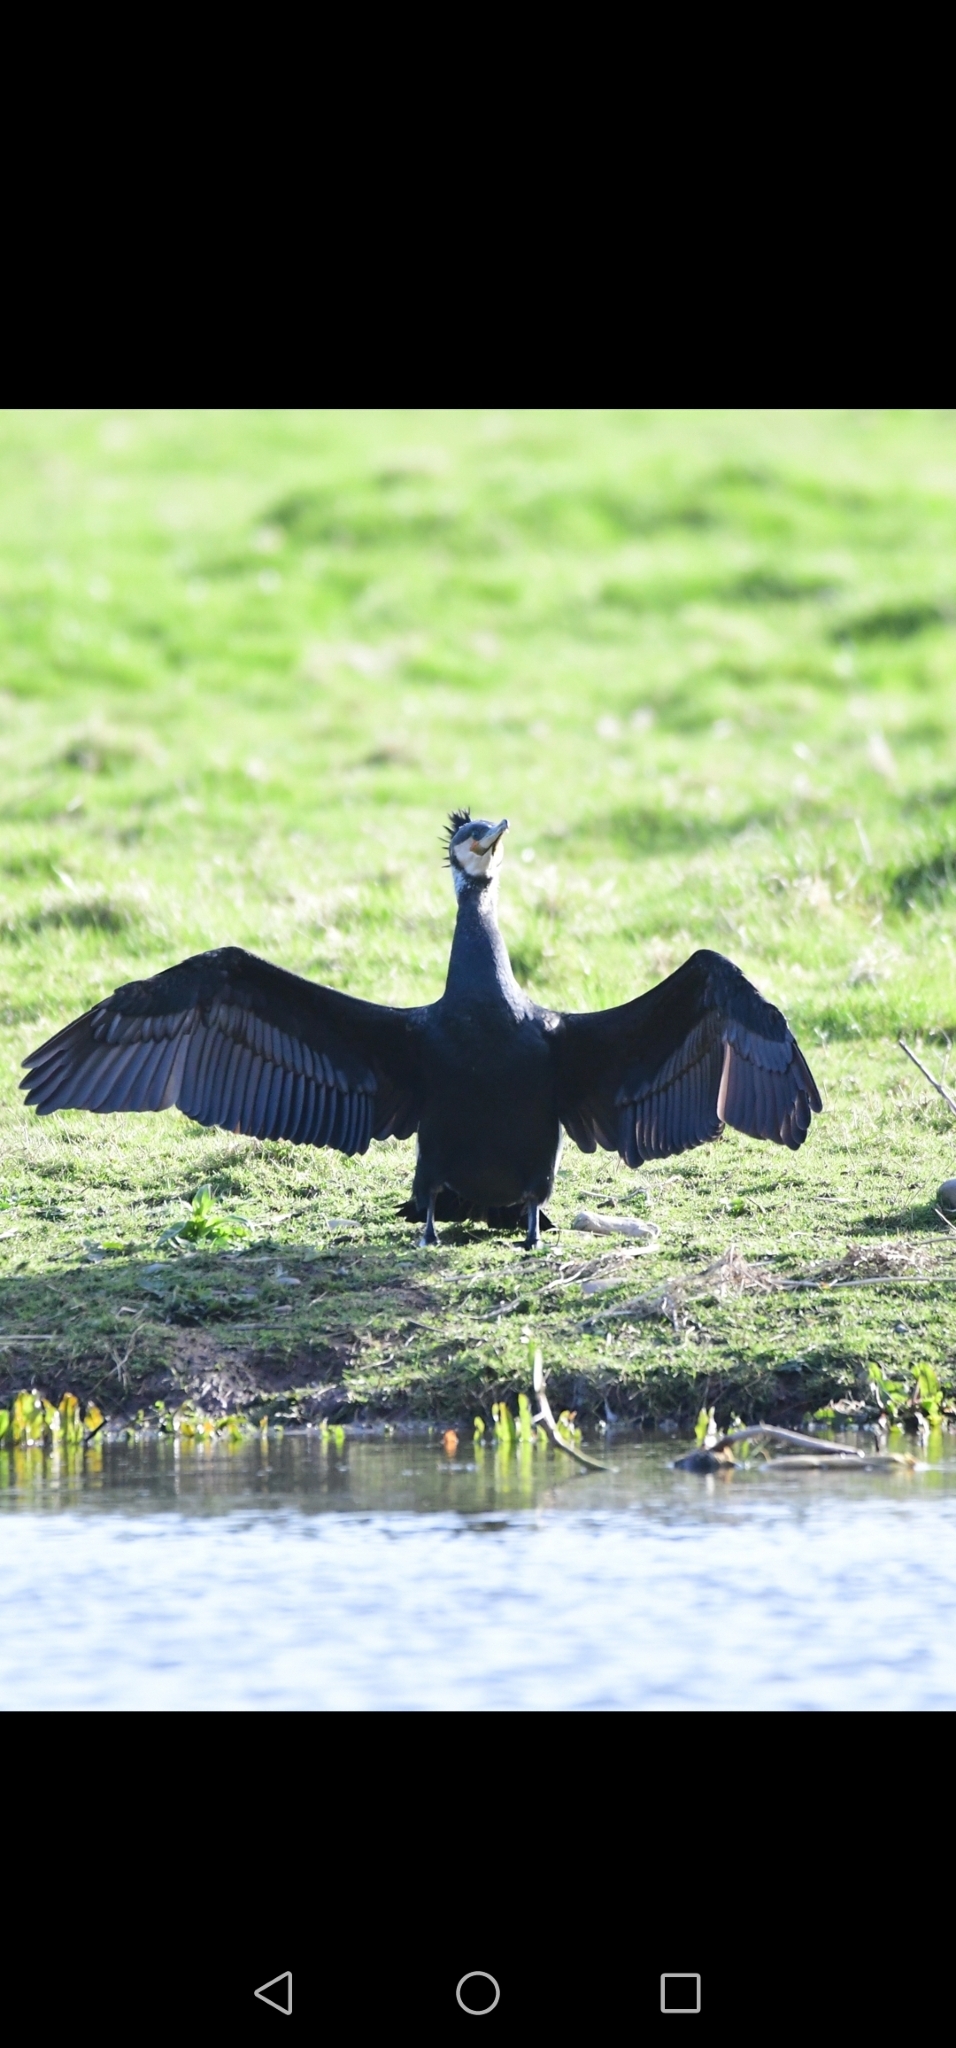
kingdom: Animalia
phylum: Chordata
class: Aves
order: Suliformes
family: Phalacrocoracidae
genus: Phalacrocorax
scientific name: Phalacrocorax carbo
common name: Great cormorant
